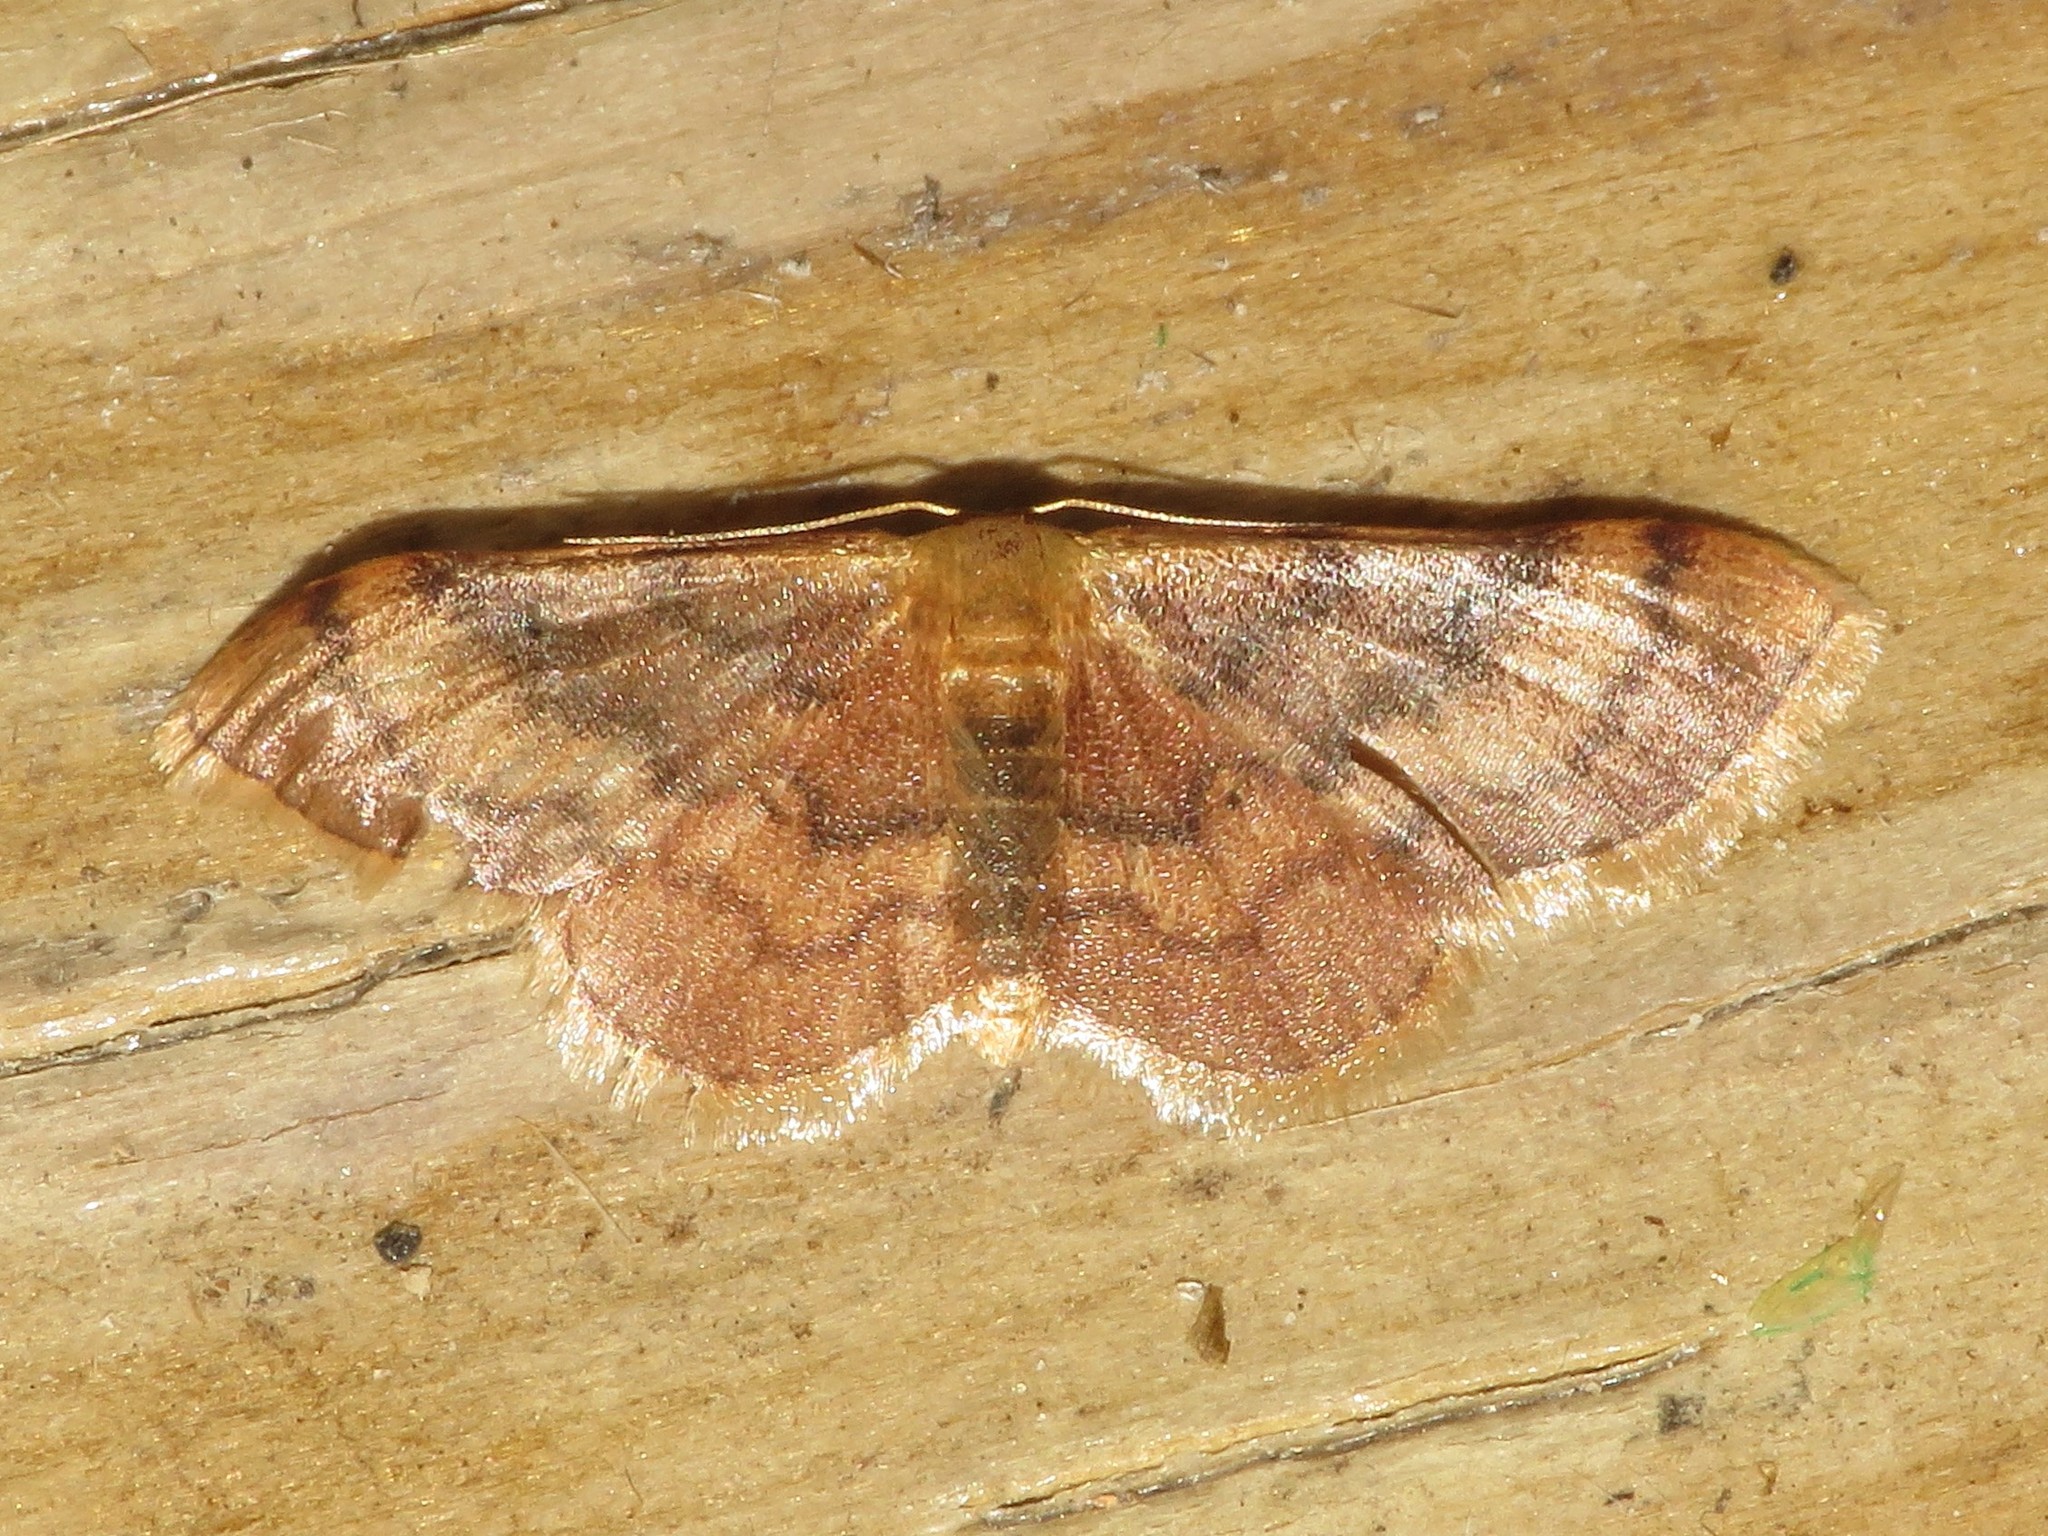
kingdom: Animalia
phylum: Arthropoda
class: Insecta
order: Lepidoptera
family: Geometridae
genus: Idaea
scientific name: Idaea demissaria
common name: Red-bordered wave
